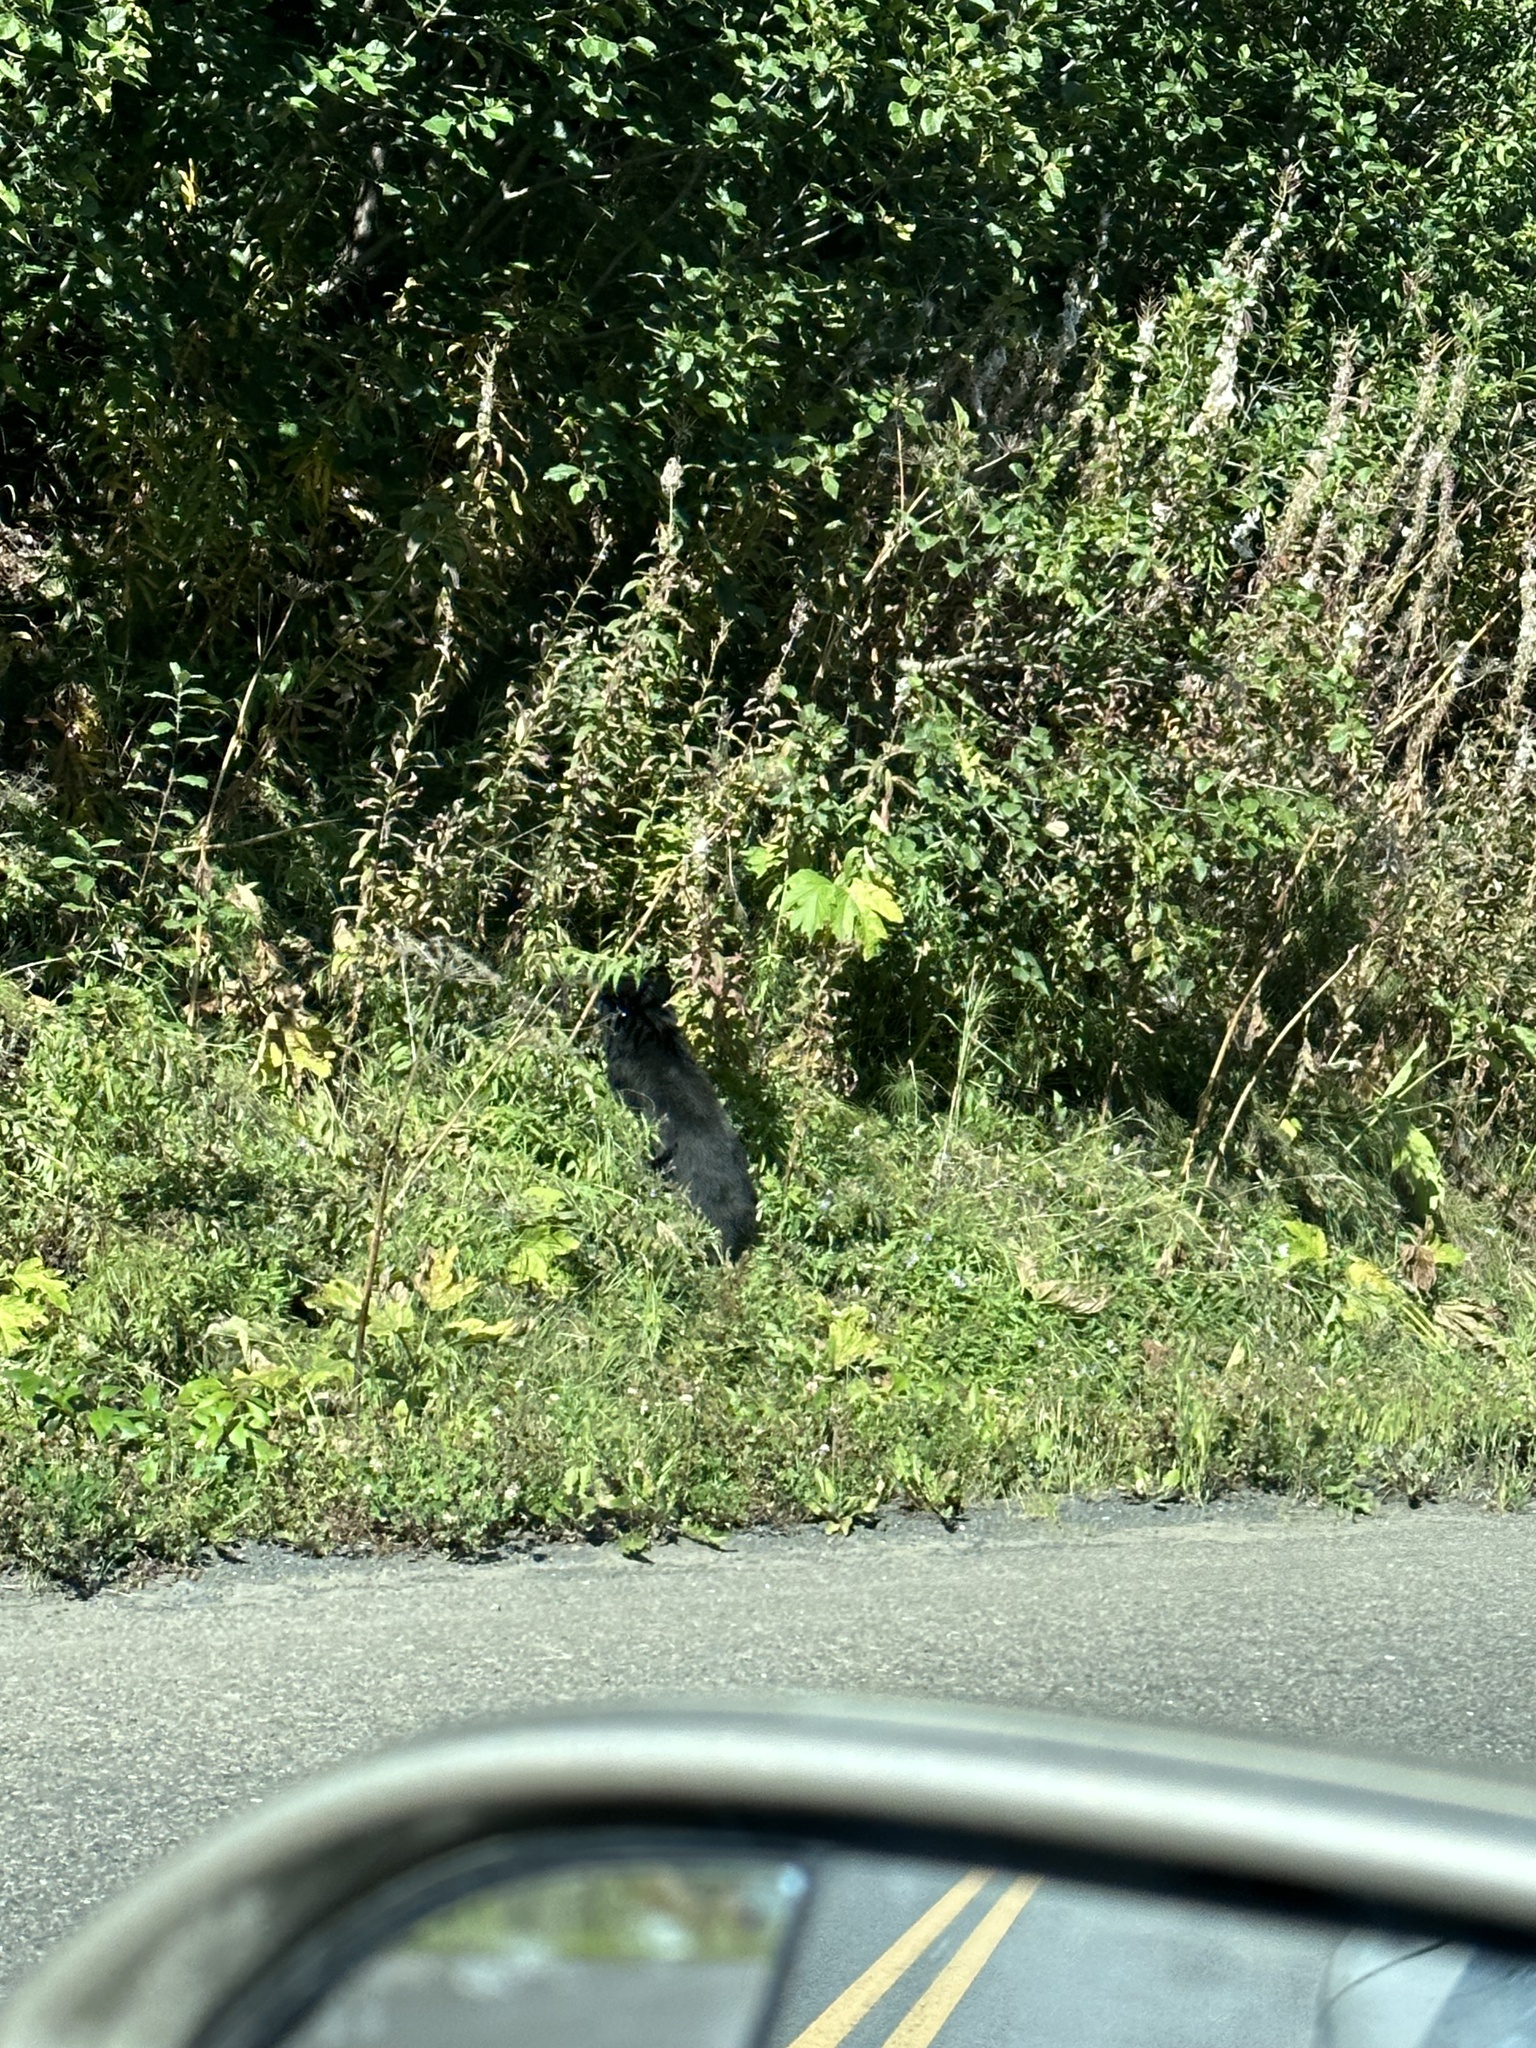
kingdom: Animalia
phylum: Chordata
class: Mammalia
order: Carnivora
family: Ursidae
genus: Ursus
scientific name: Ursus americanus
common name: American black bear
